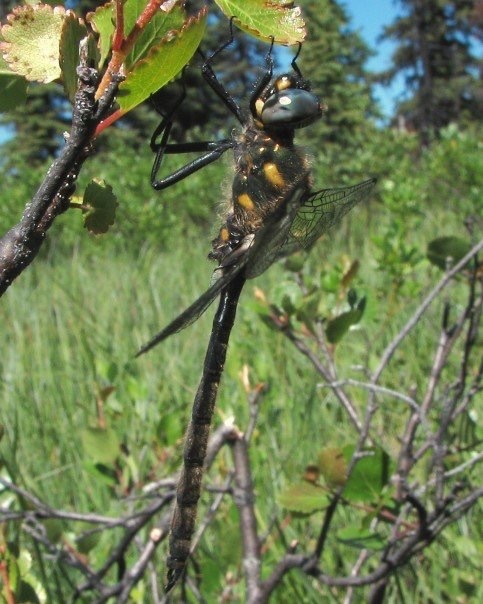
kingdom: Animalia
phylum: Arthropoda
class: Insecta
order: Odonata
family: Corduliidae
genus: Somatochlora
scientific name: Somatochlora semicircularis
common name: Mountain emerald
